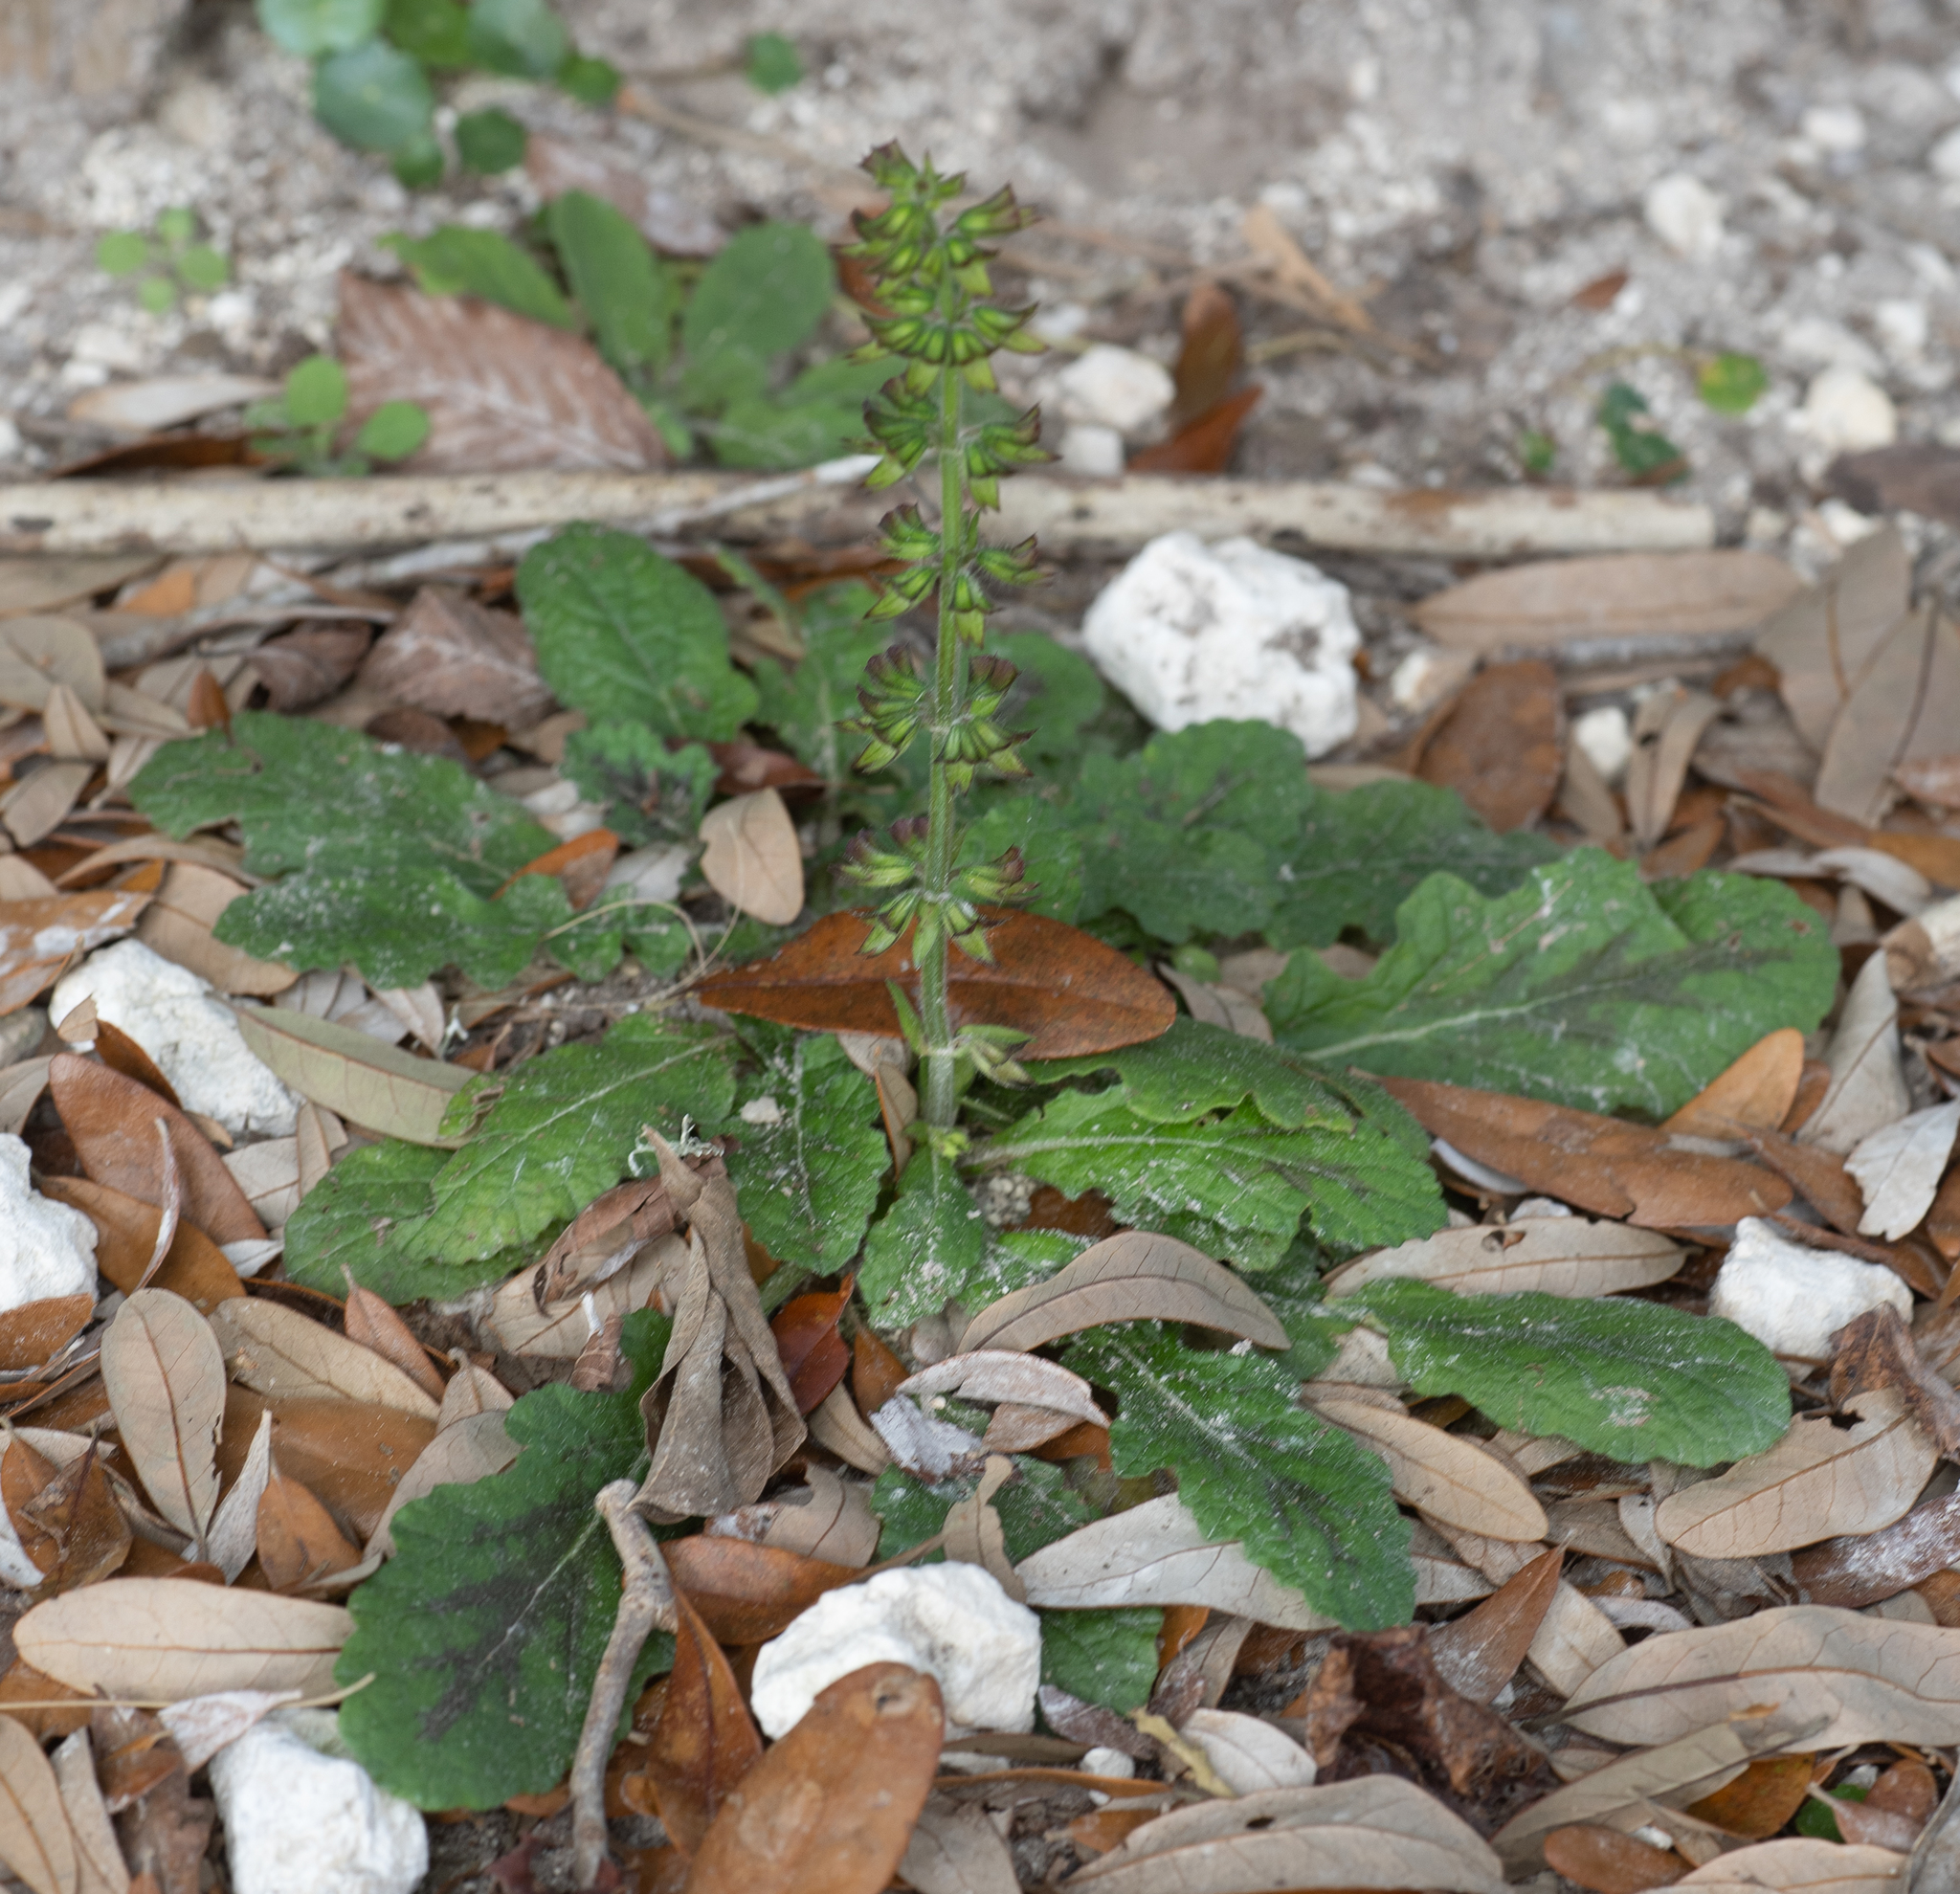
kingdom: Plantae
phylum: Tracheophyta
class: Magnoliopsida
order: Lamiales
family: Lamiaceae
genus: Salvia
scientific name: Salvia lyrata
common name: Cancerweed
